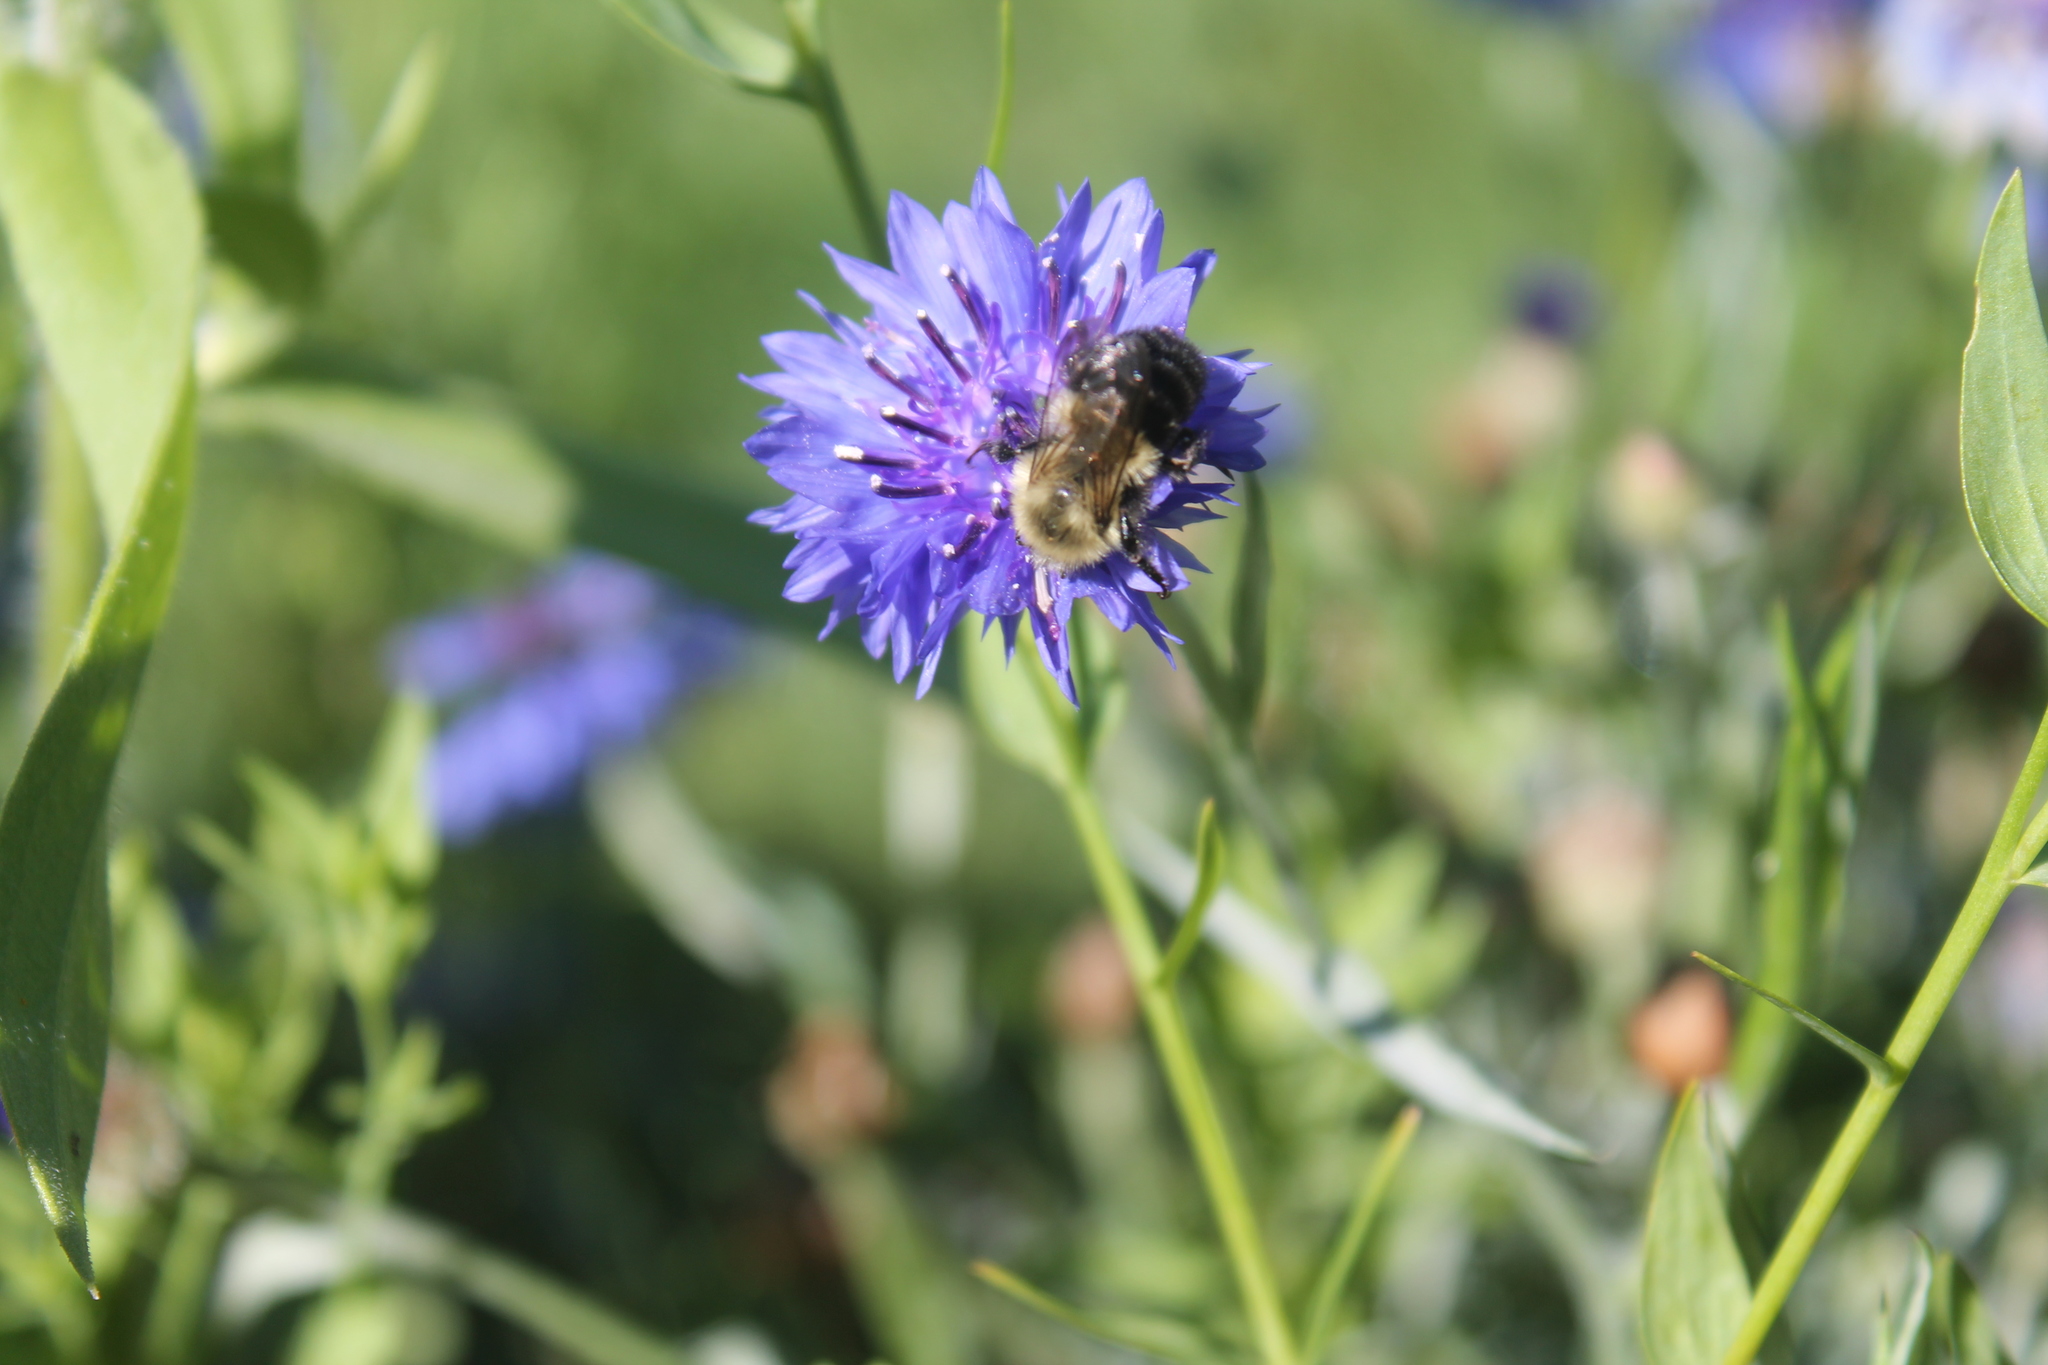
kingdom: Animalia
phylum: Arthropoda
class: Insecta
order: Hymenoptera
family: Apidae
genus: Bombus
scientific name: Bombus impatiens
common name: Common eastern bumble bee
